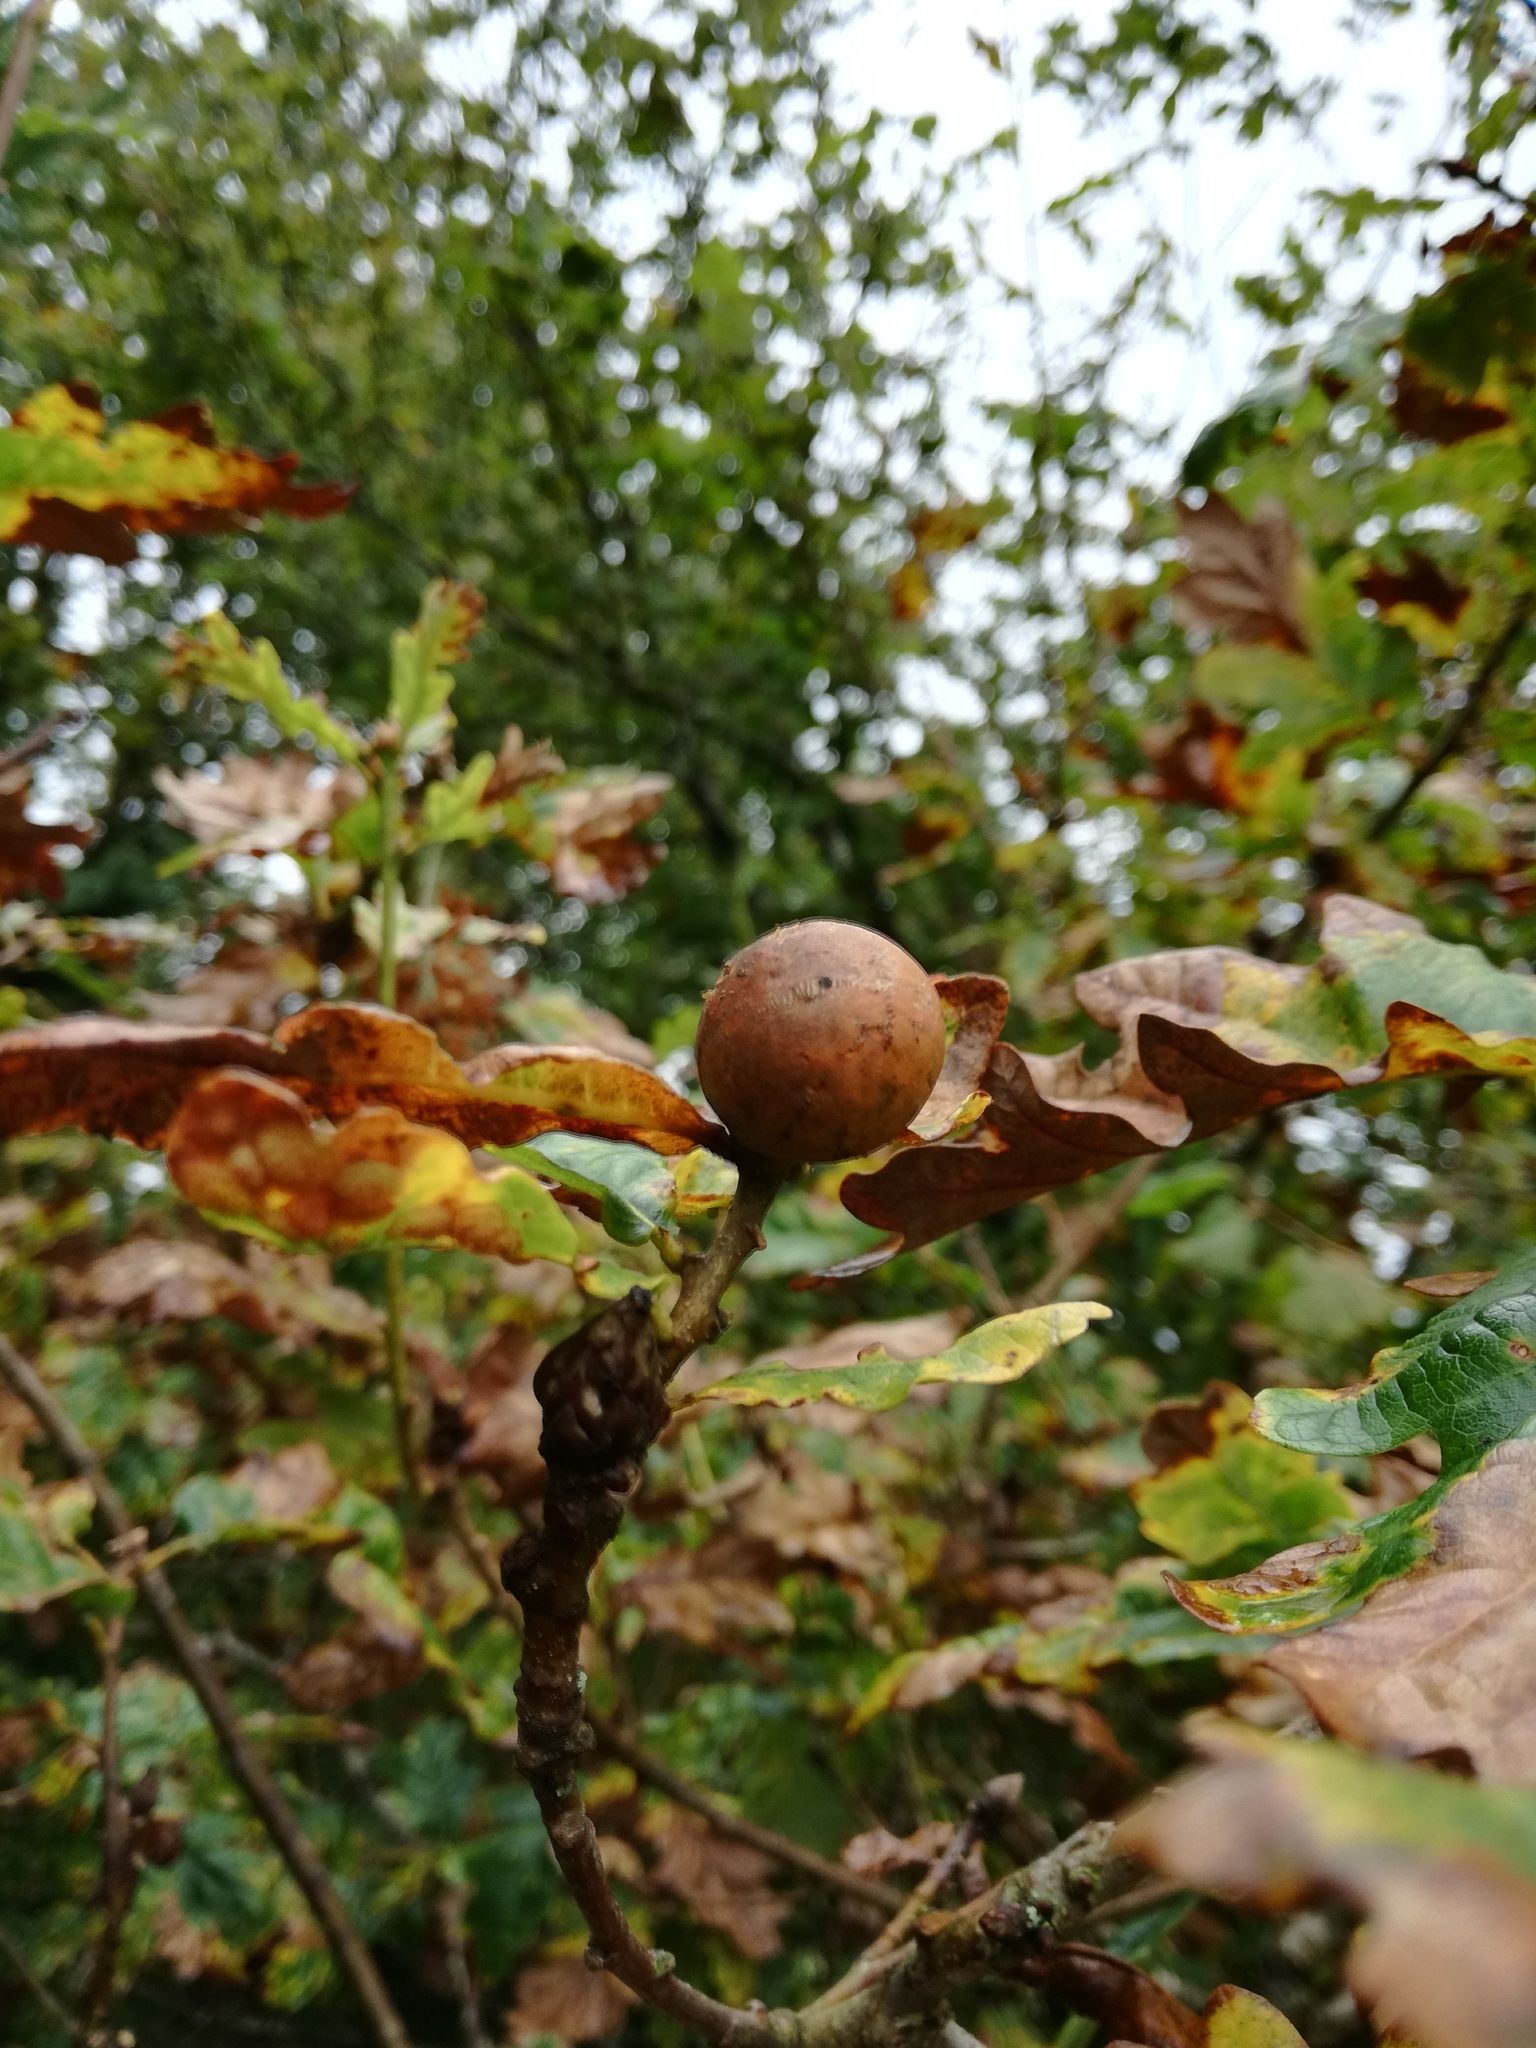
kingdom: Animalia
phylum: Arthropoda
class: Insecta
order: Hymenoptera
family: Cynipidae
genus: Andricus
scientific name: Andricus kollari
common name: Marble gall
